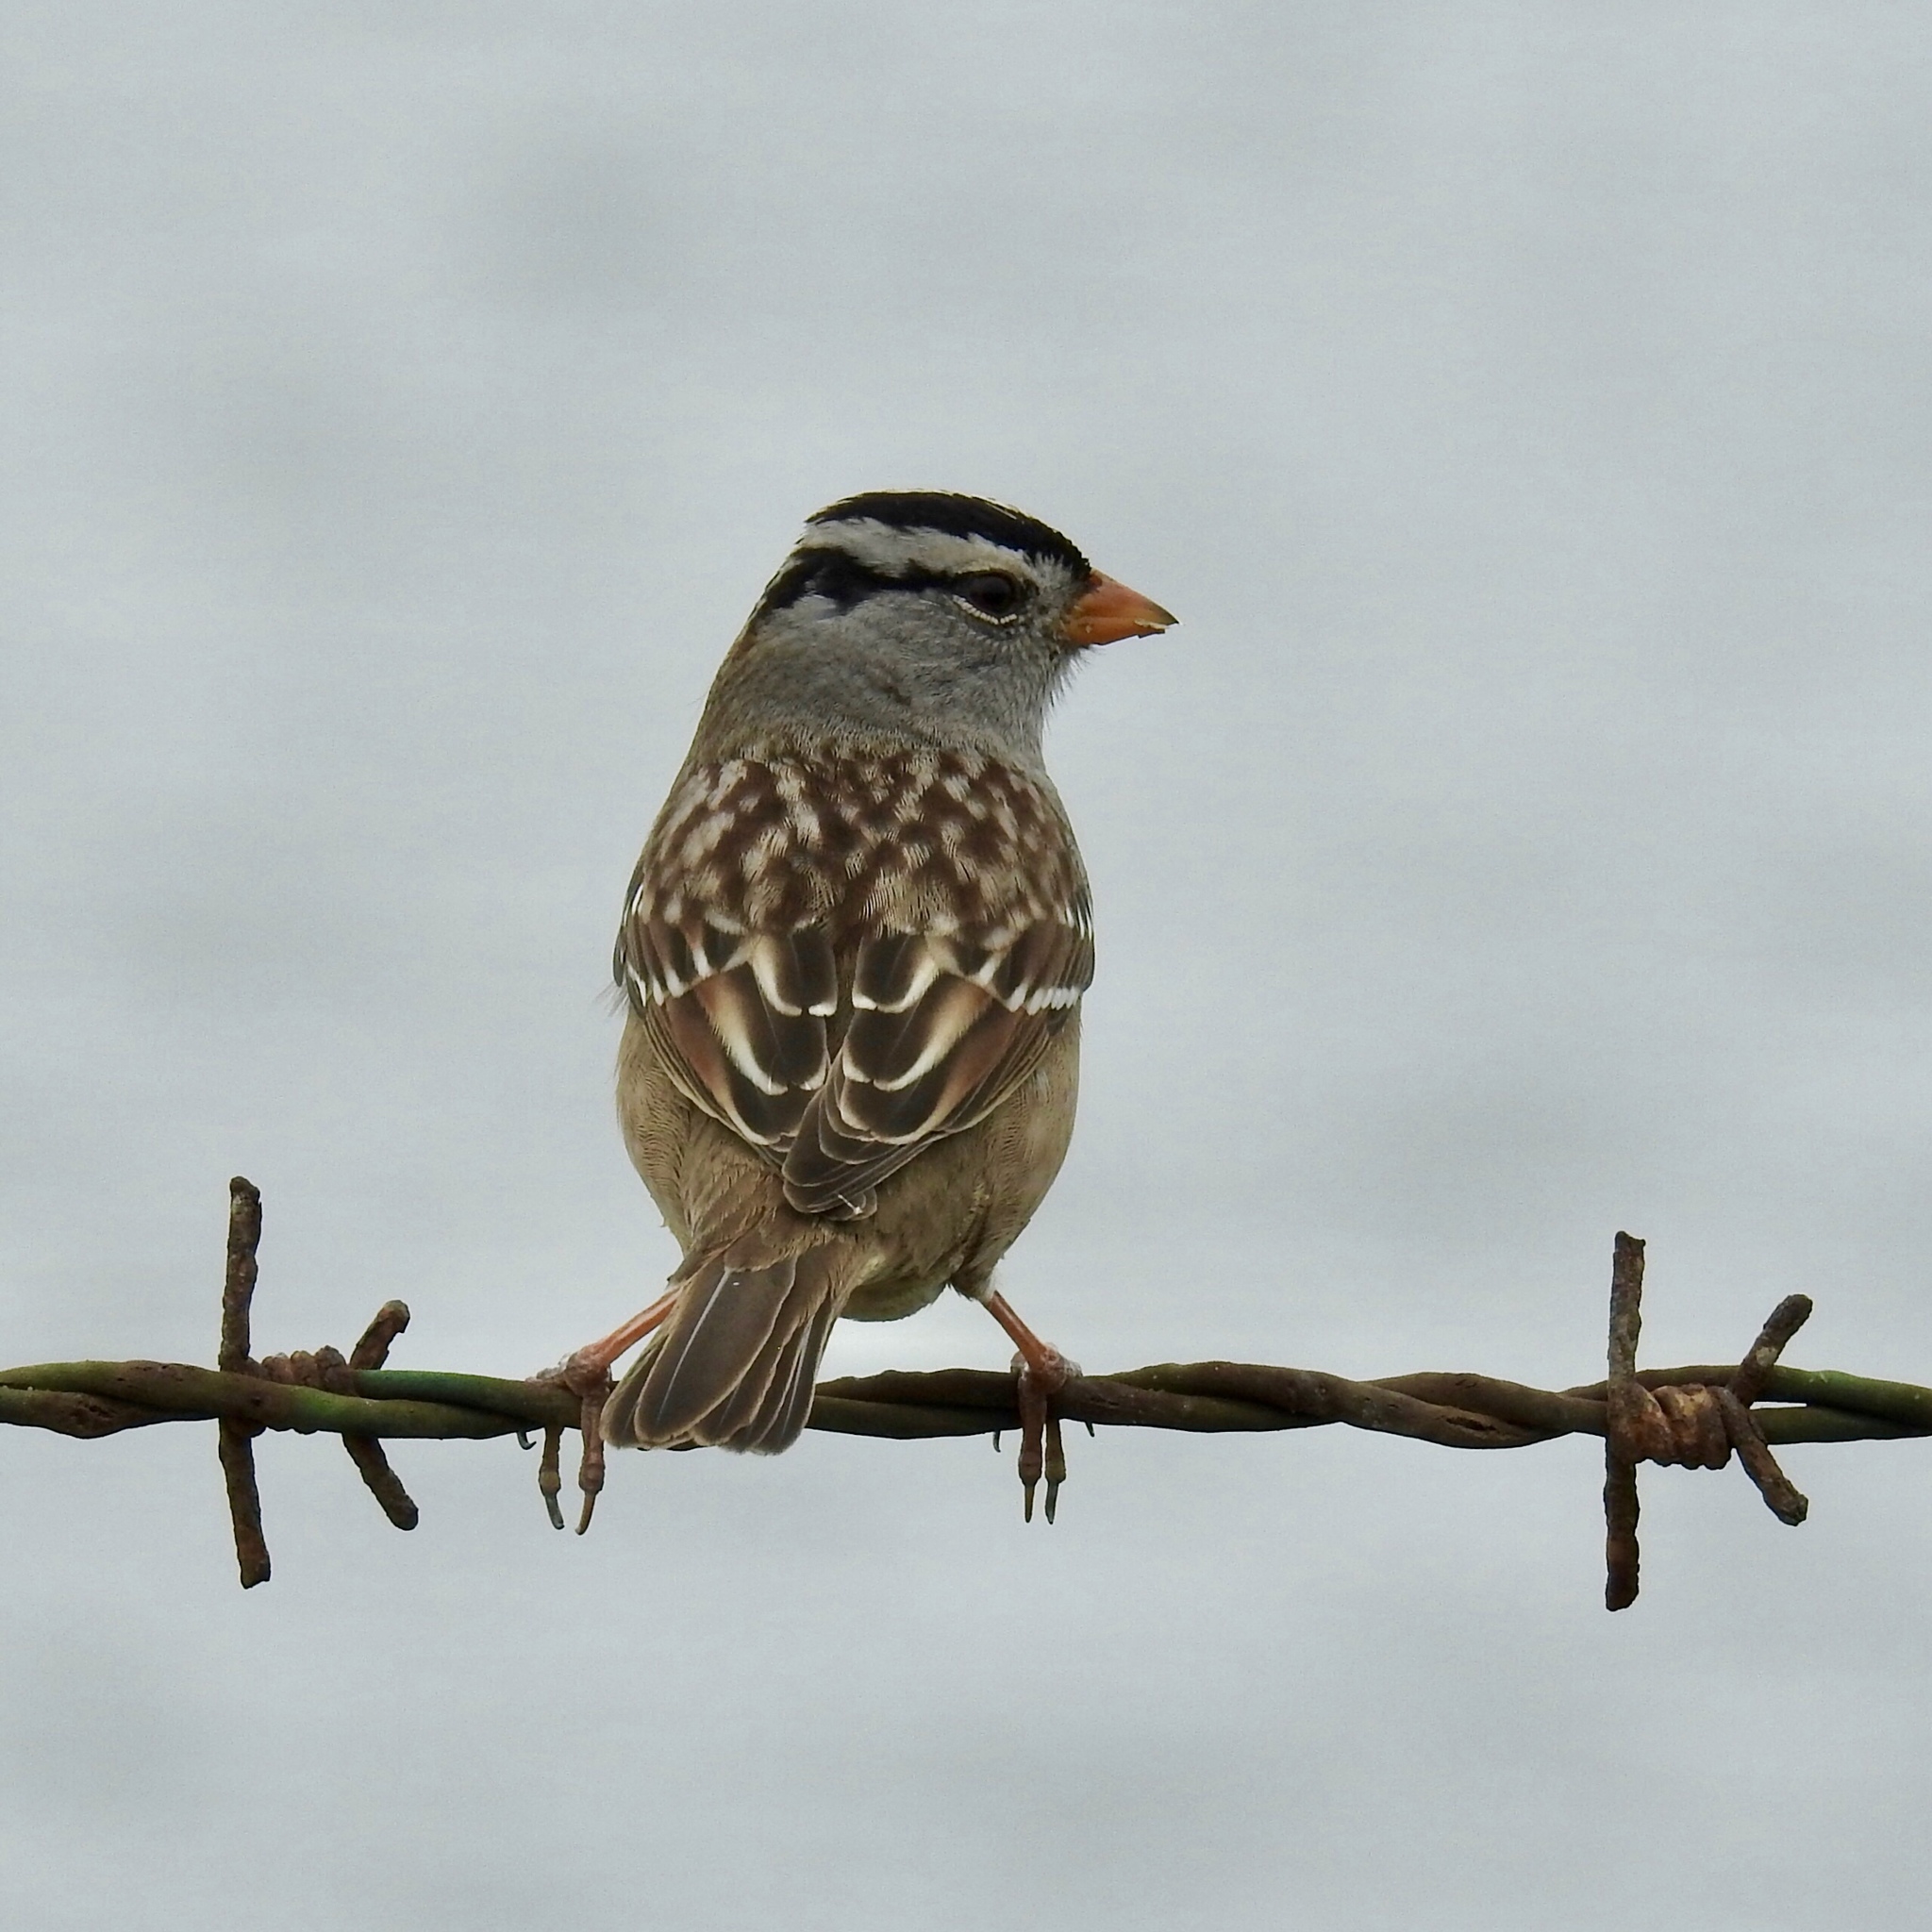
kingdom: Animalia
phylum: Chordata
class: Aves
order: Passeriformes
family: Passerellidae
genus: Zonotrichia
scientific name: Zonotrichia leucophrys
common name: White-crowned sparrow
